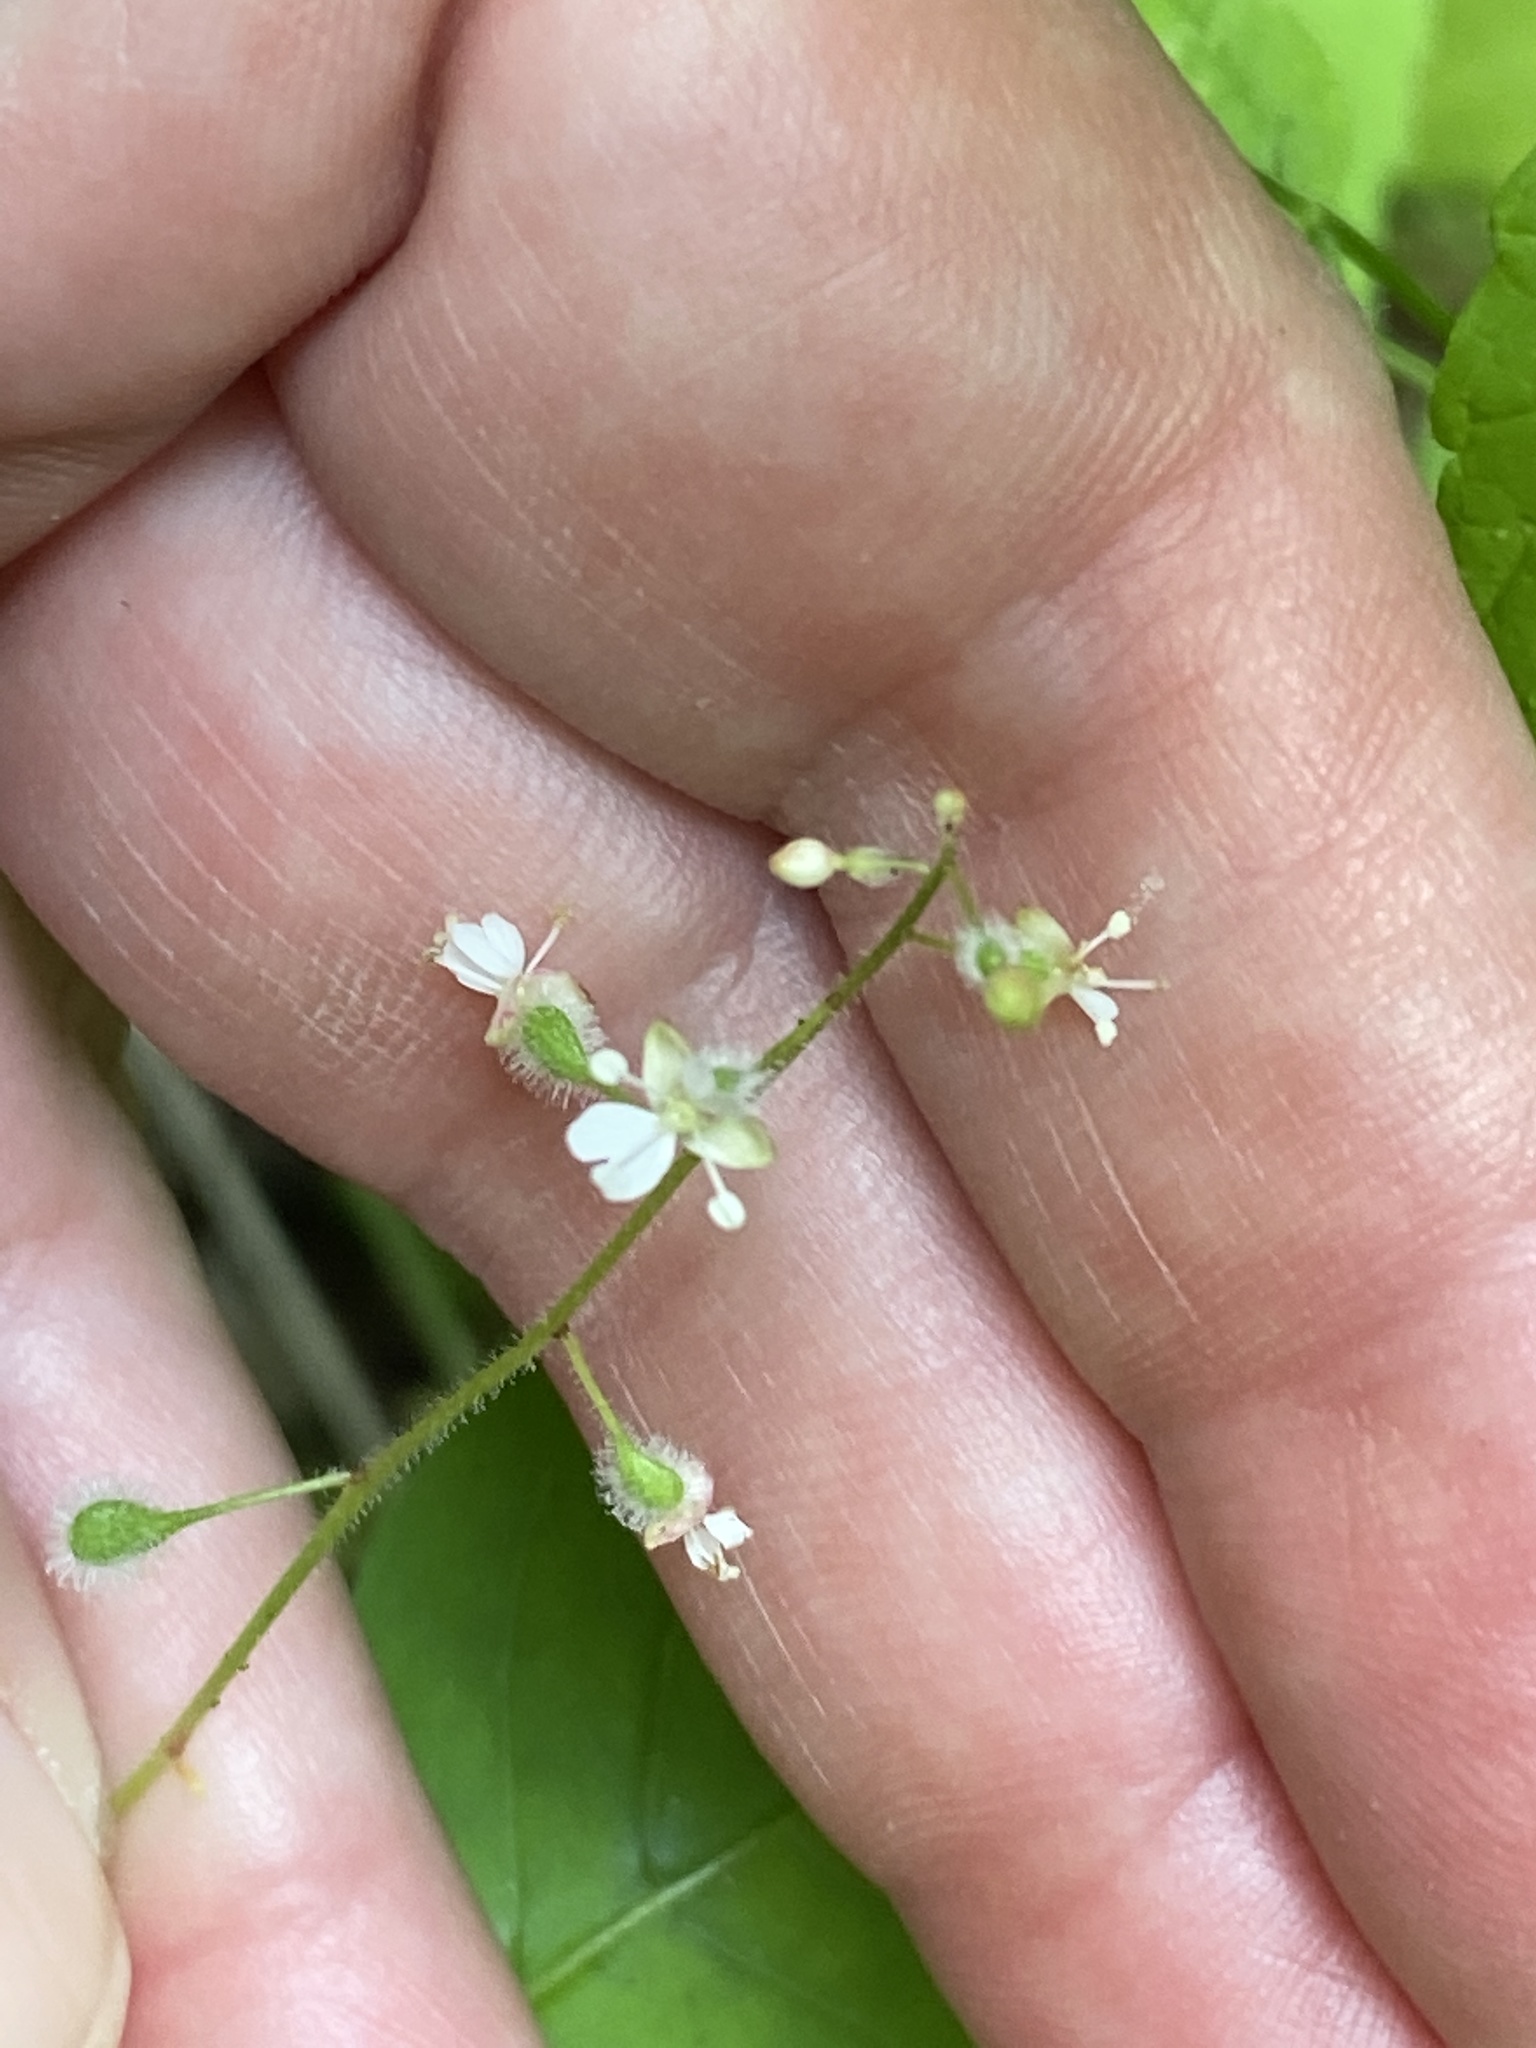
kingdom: Plantae
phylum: Tracheophyta
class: Magnoliopsida
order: Myrtales
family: Onagraceae
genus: Circaea
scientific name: Circaea canadensis
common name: Broad-leaved enchanter's nightshade
